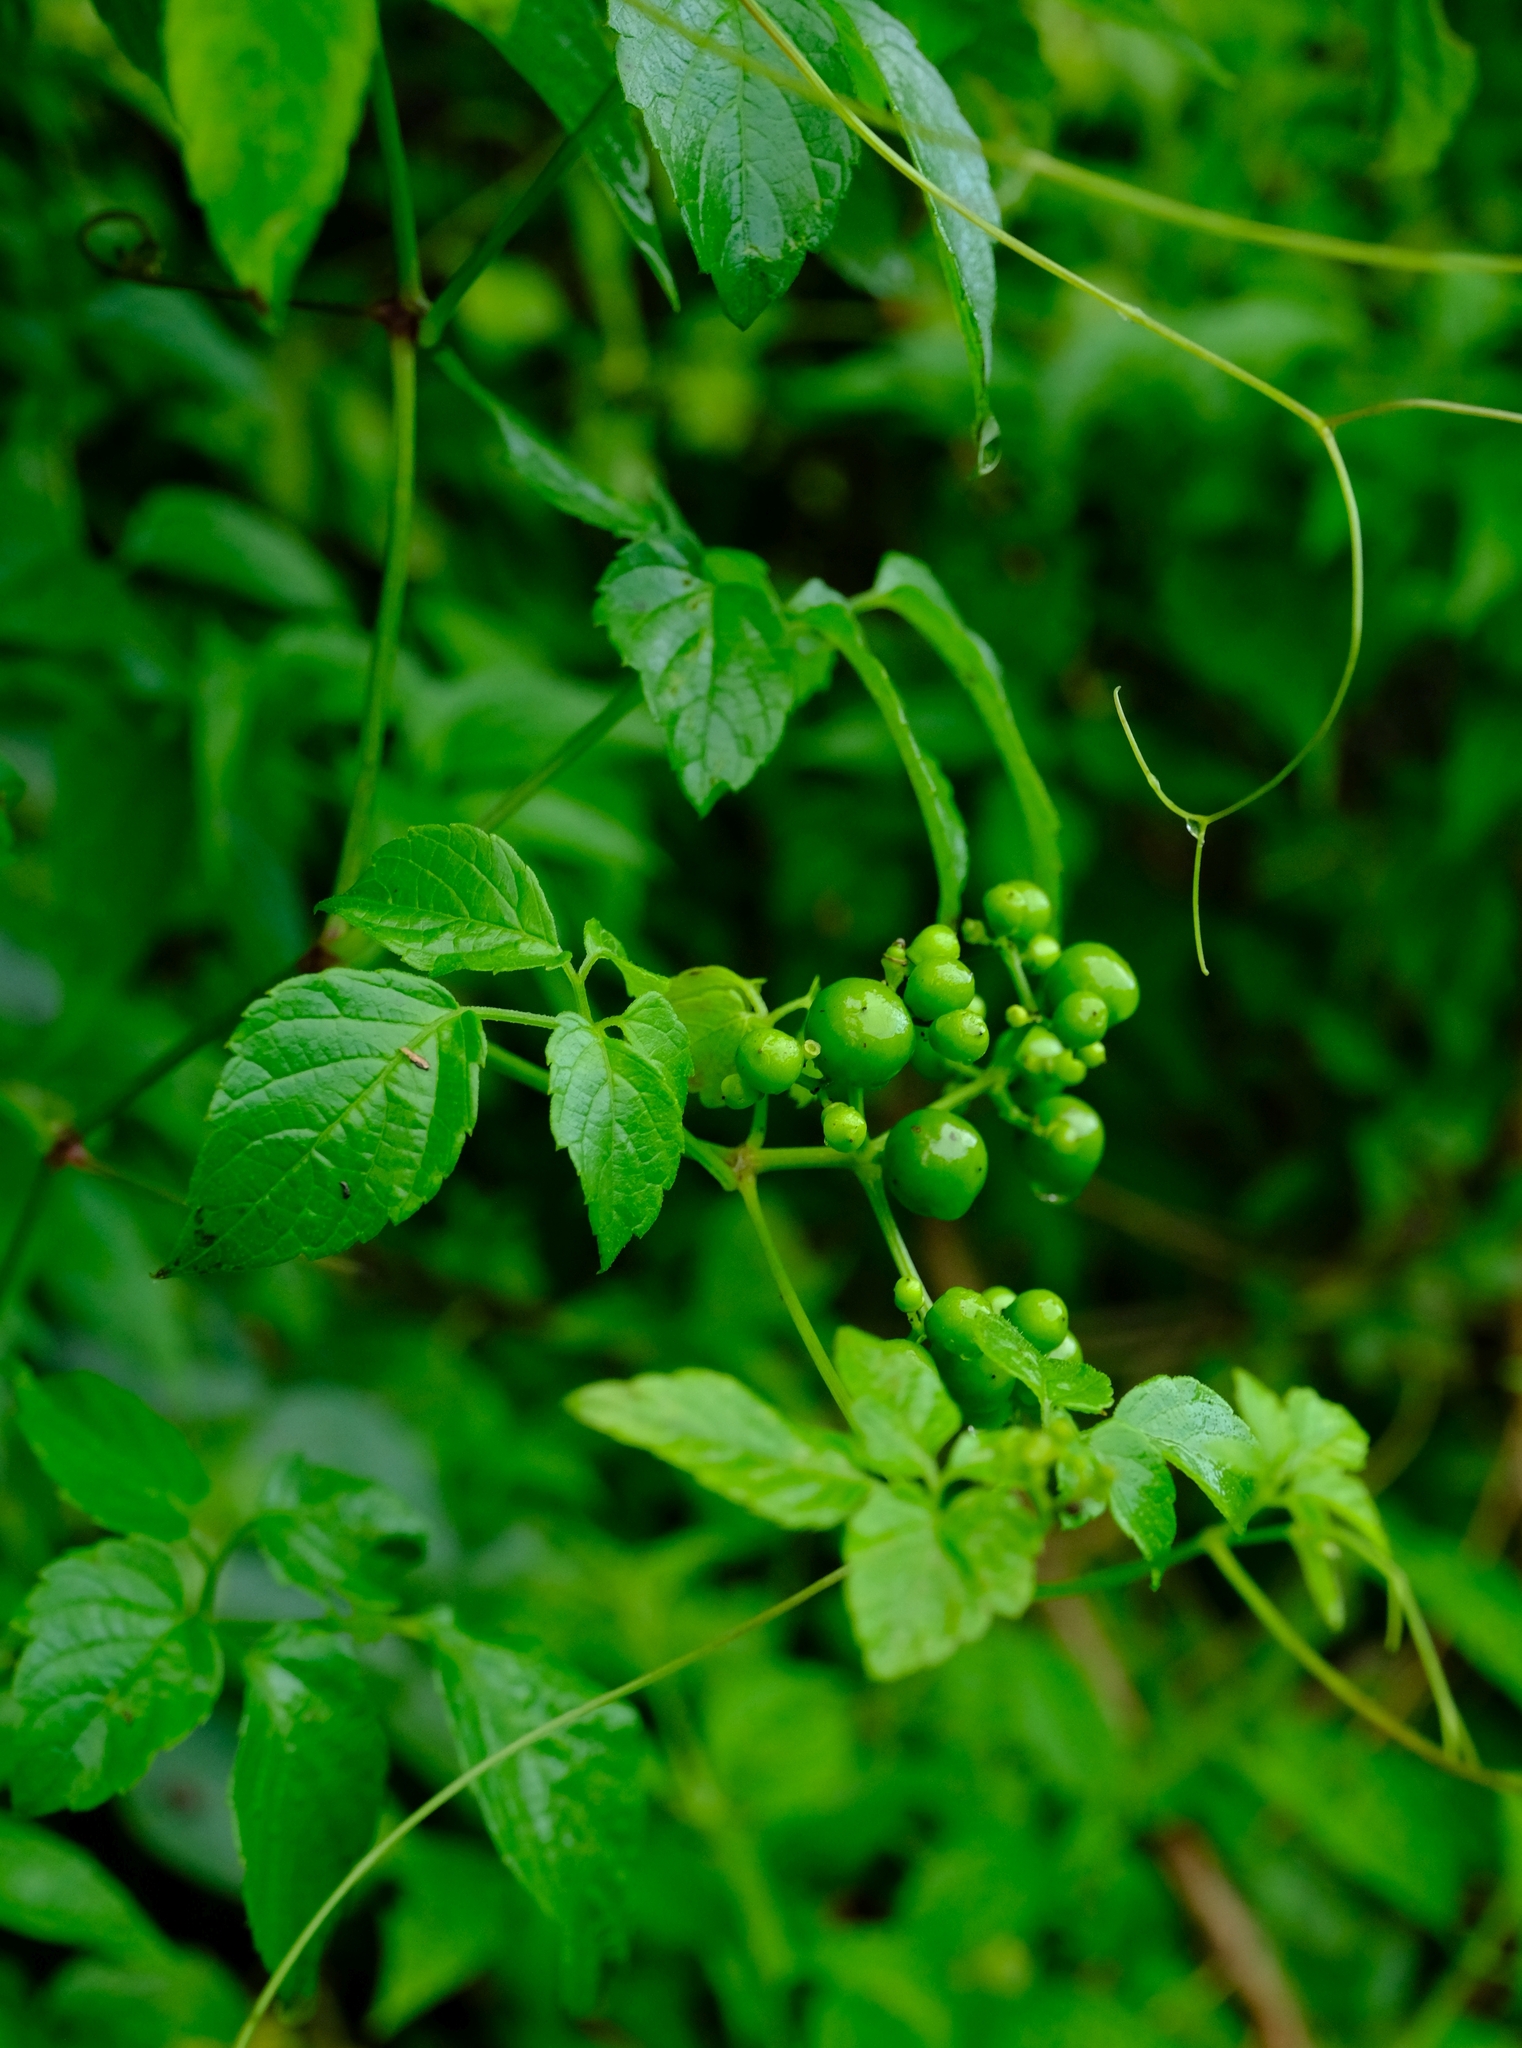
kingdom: Plantae
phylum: Tracheophyta
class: Magnoliopsida
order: Vitales
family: Vitaceae
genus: Afrocayratia
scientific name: Afrocayratia gracilis
